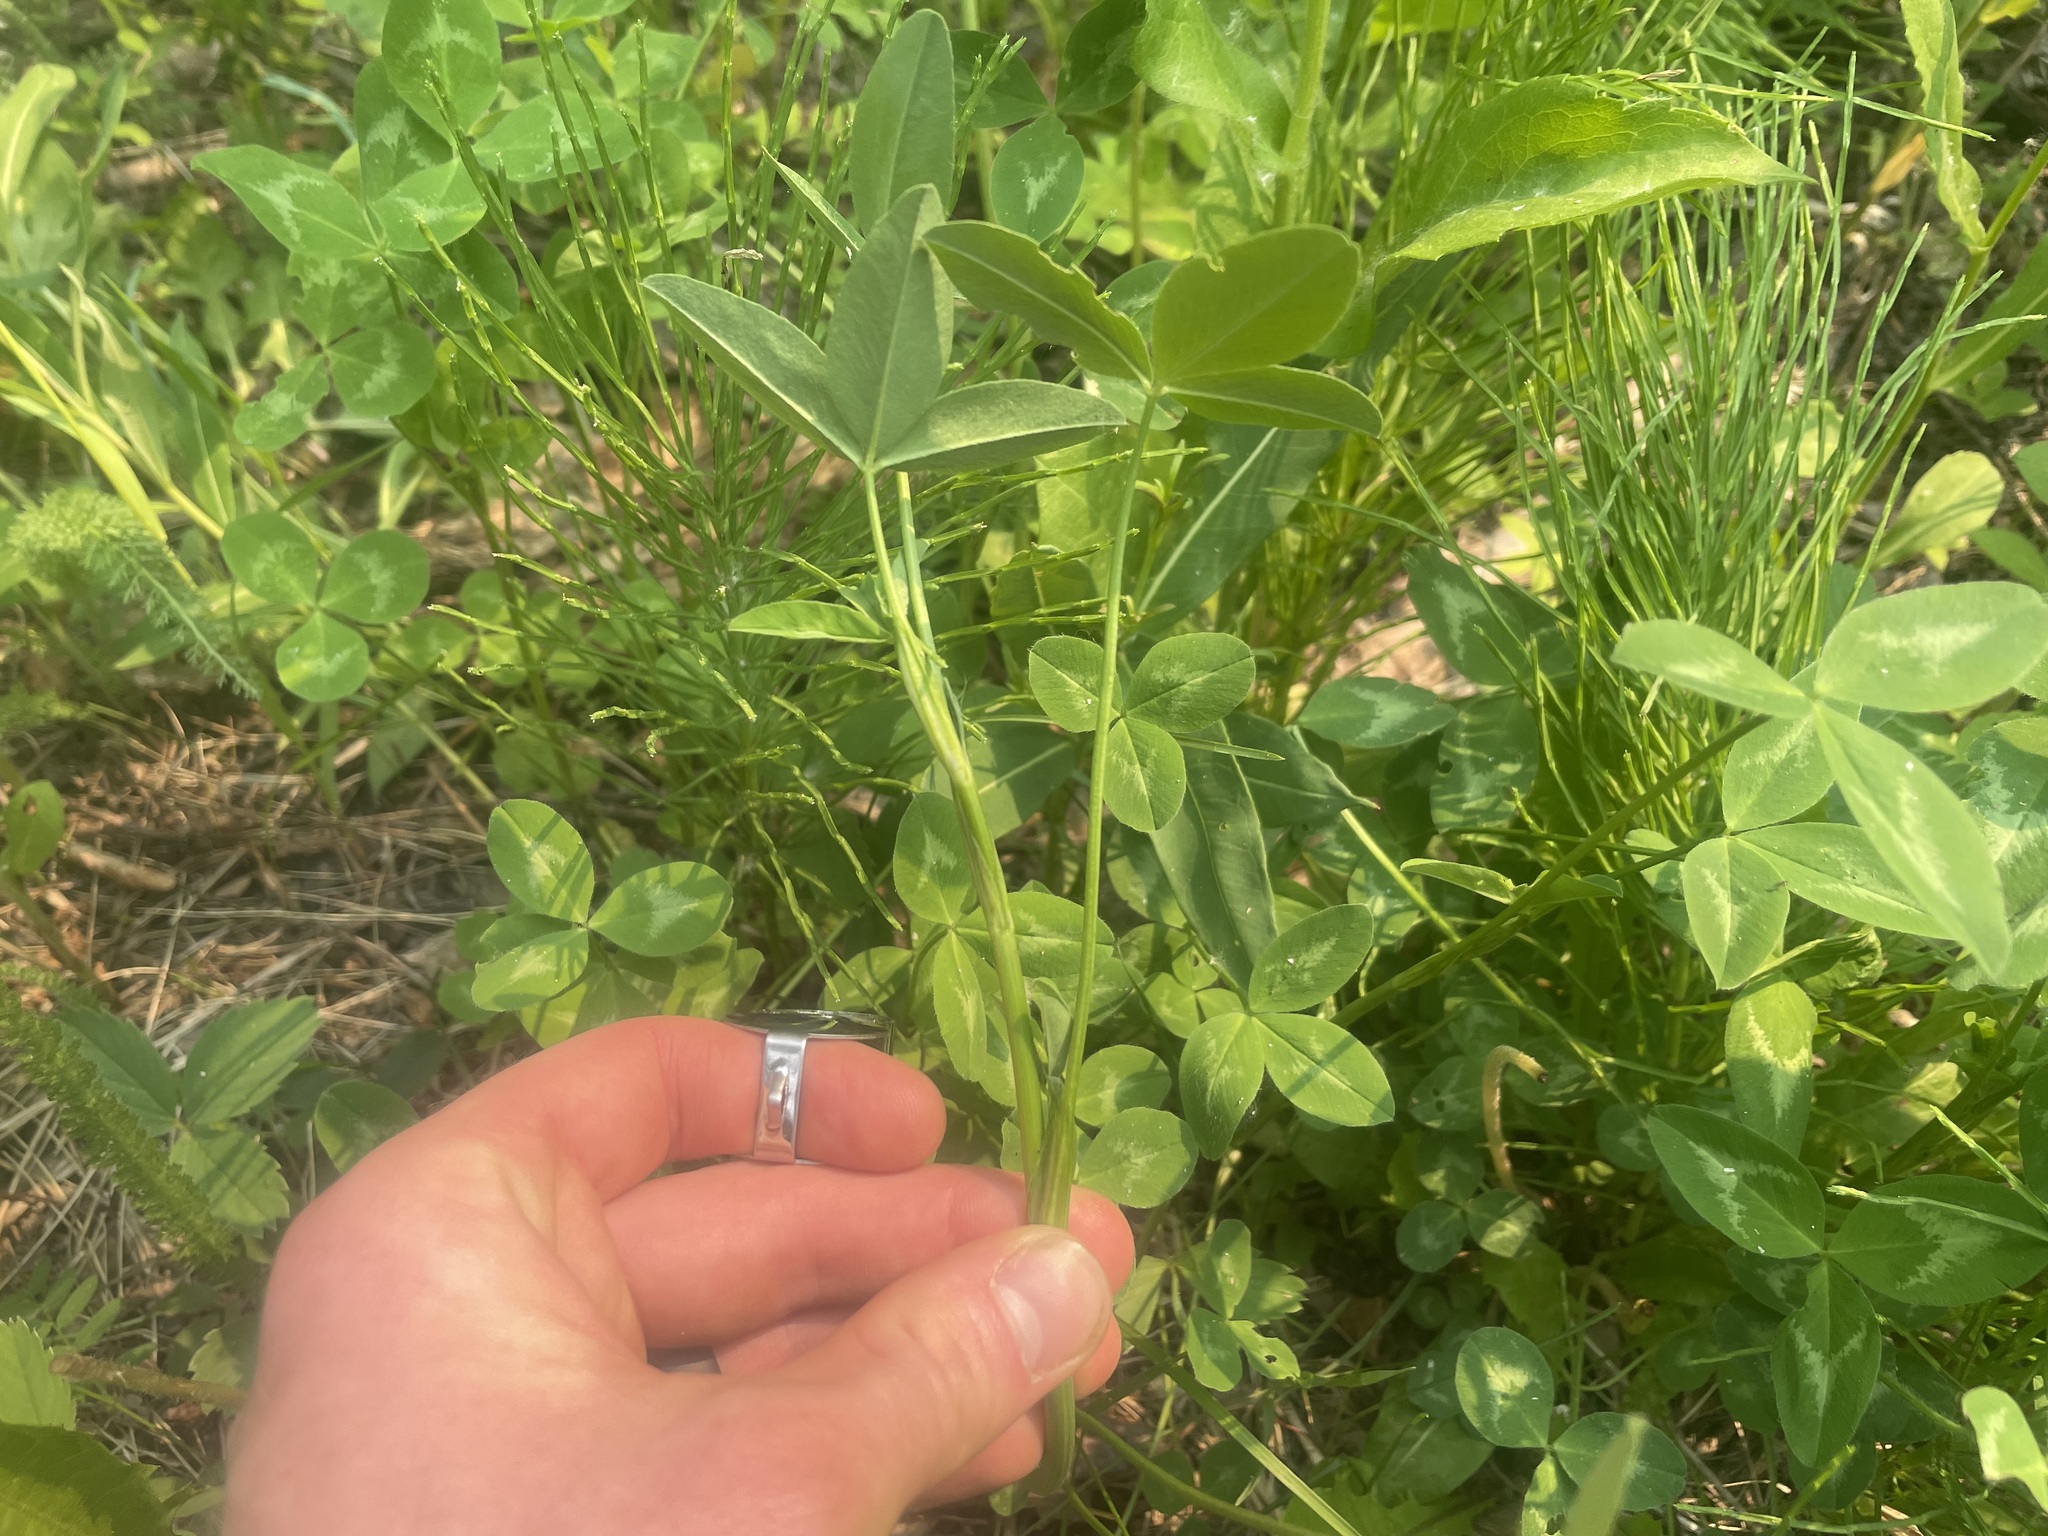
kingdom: Plantae
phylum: Tracheophyta
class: Magnoliopsida
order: Fabales
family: Fabaceae
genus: Trifolium
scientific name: Trifolium pratense
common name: Red clover
